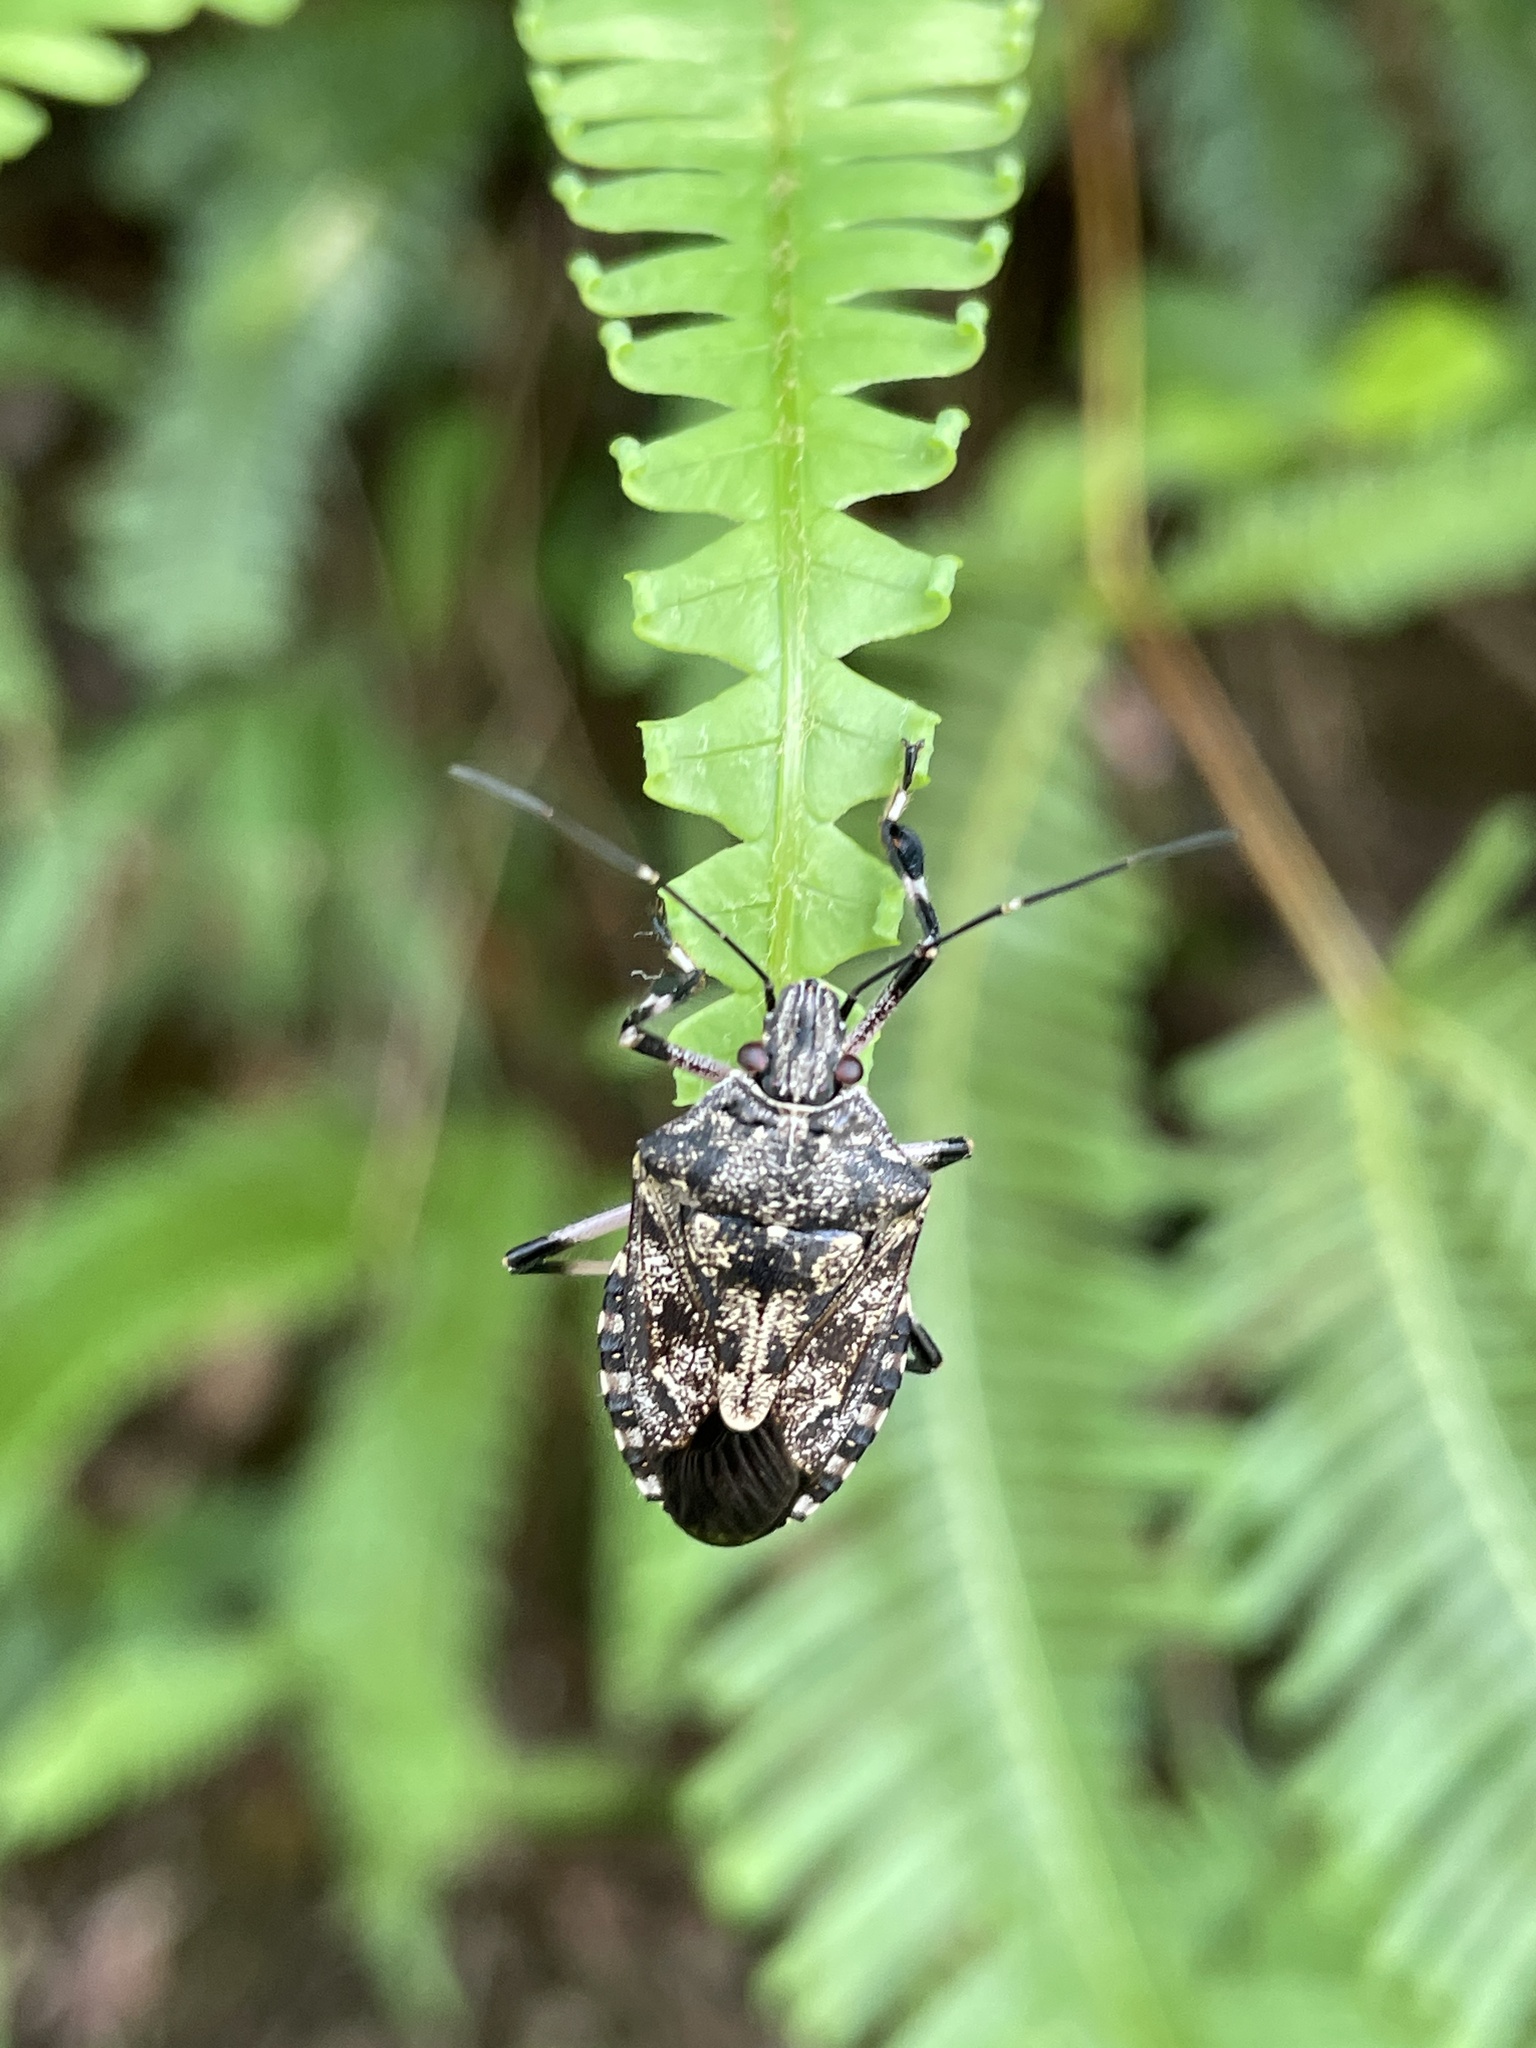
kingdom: Animalia
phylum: Arthropoda
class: Insecta
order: Hemiptera
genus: Dendrites
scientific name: Dendrites
